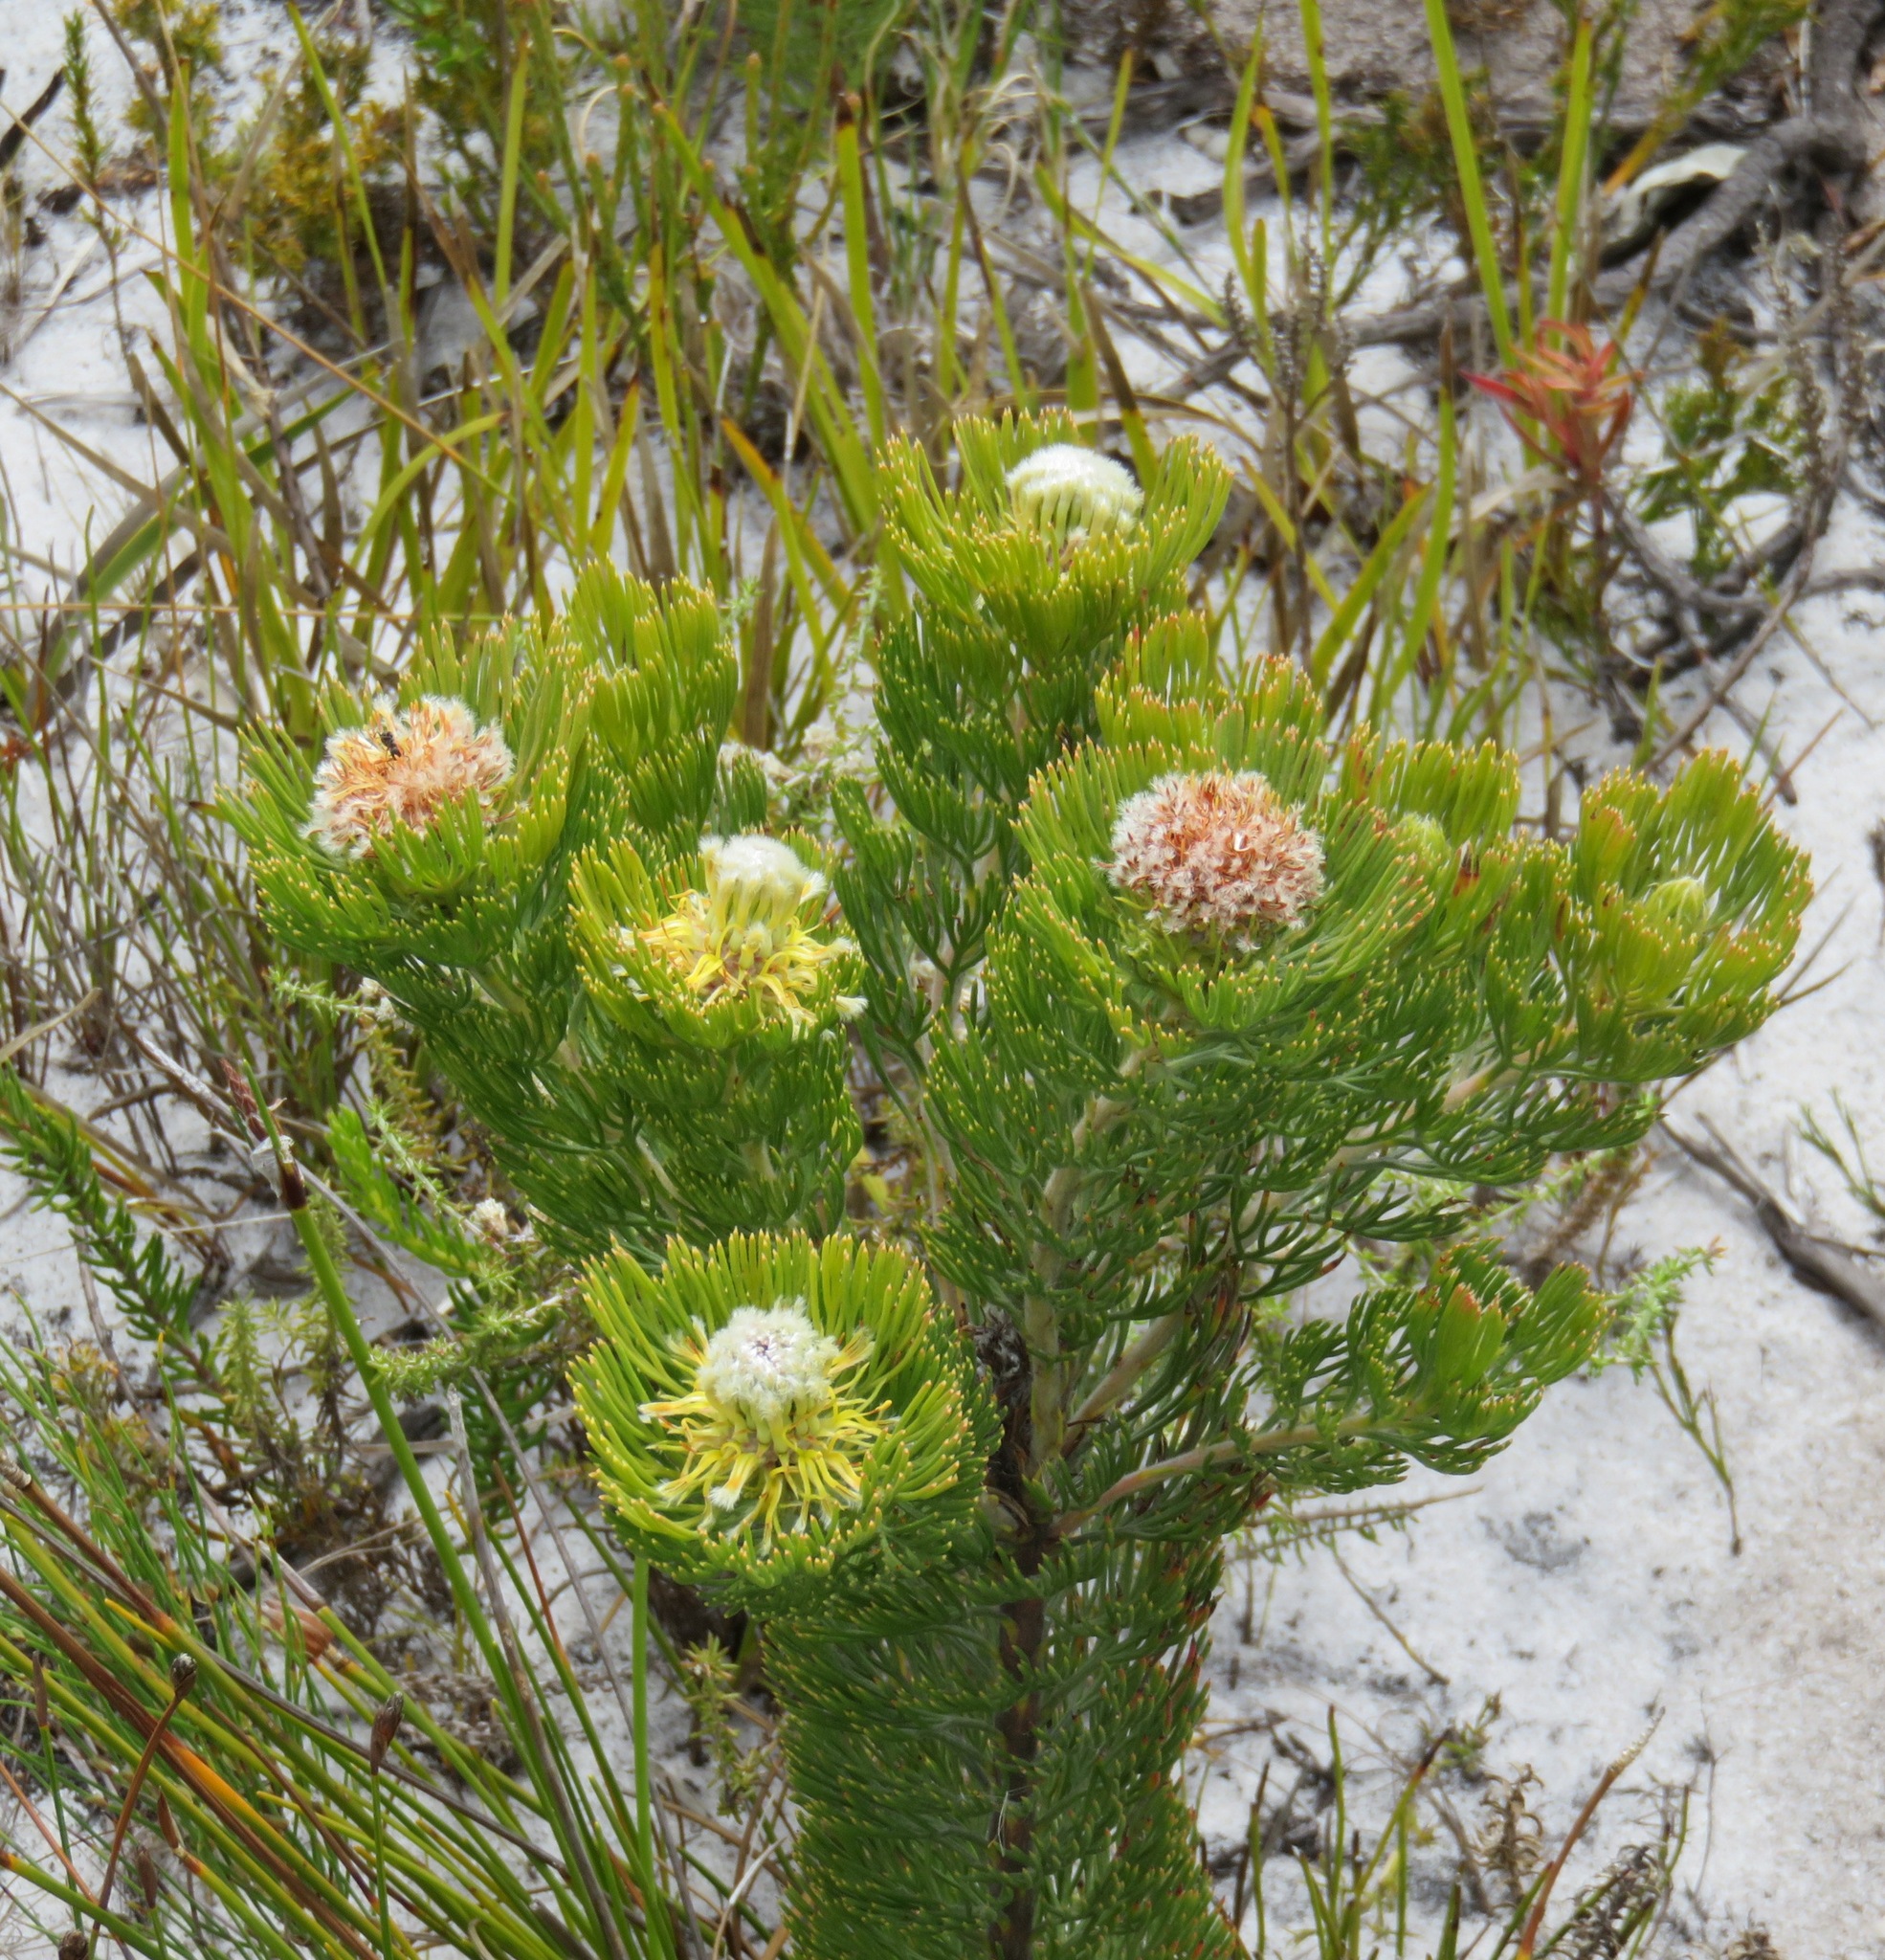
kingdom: Plantae
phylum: Tracheophyta
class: Magnoliopsida
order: Proteales
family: Proteaceae
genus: Serruria
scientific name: Serruria villosa
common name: Golden spiderhead
